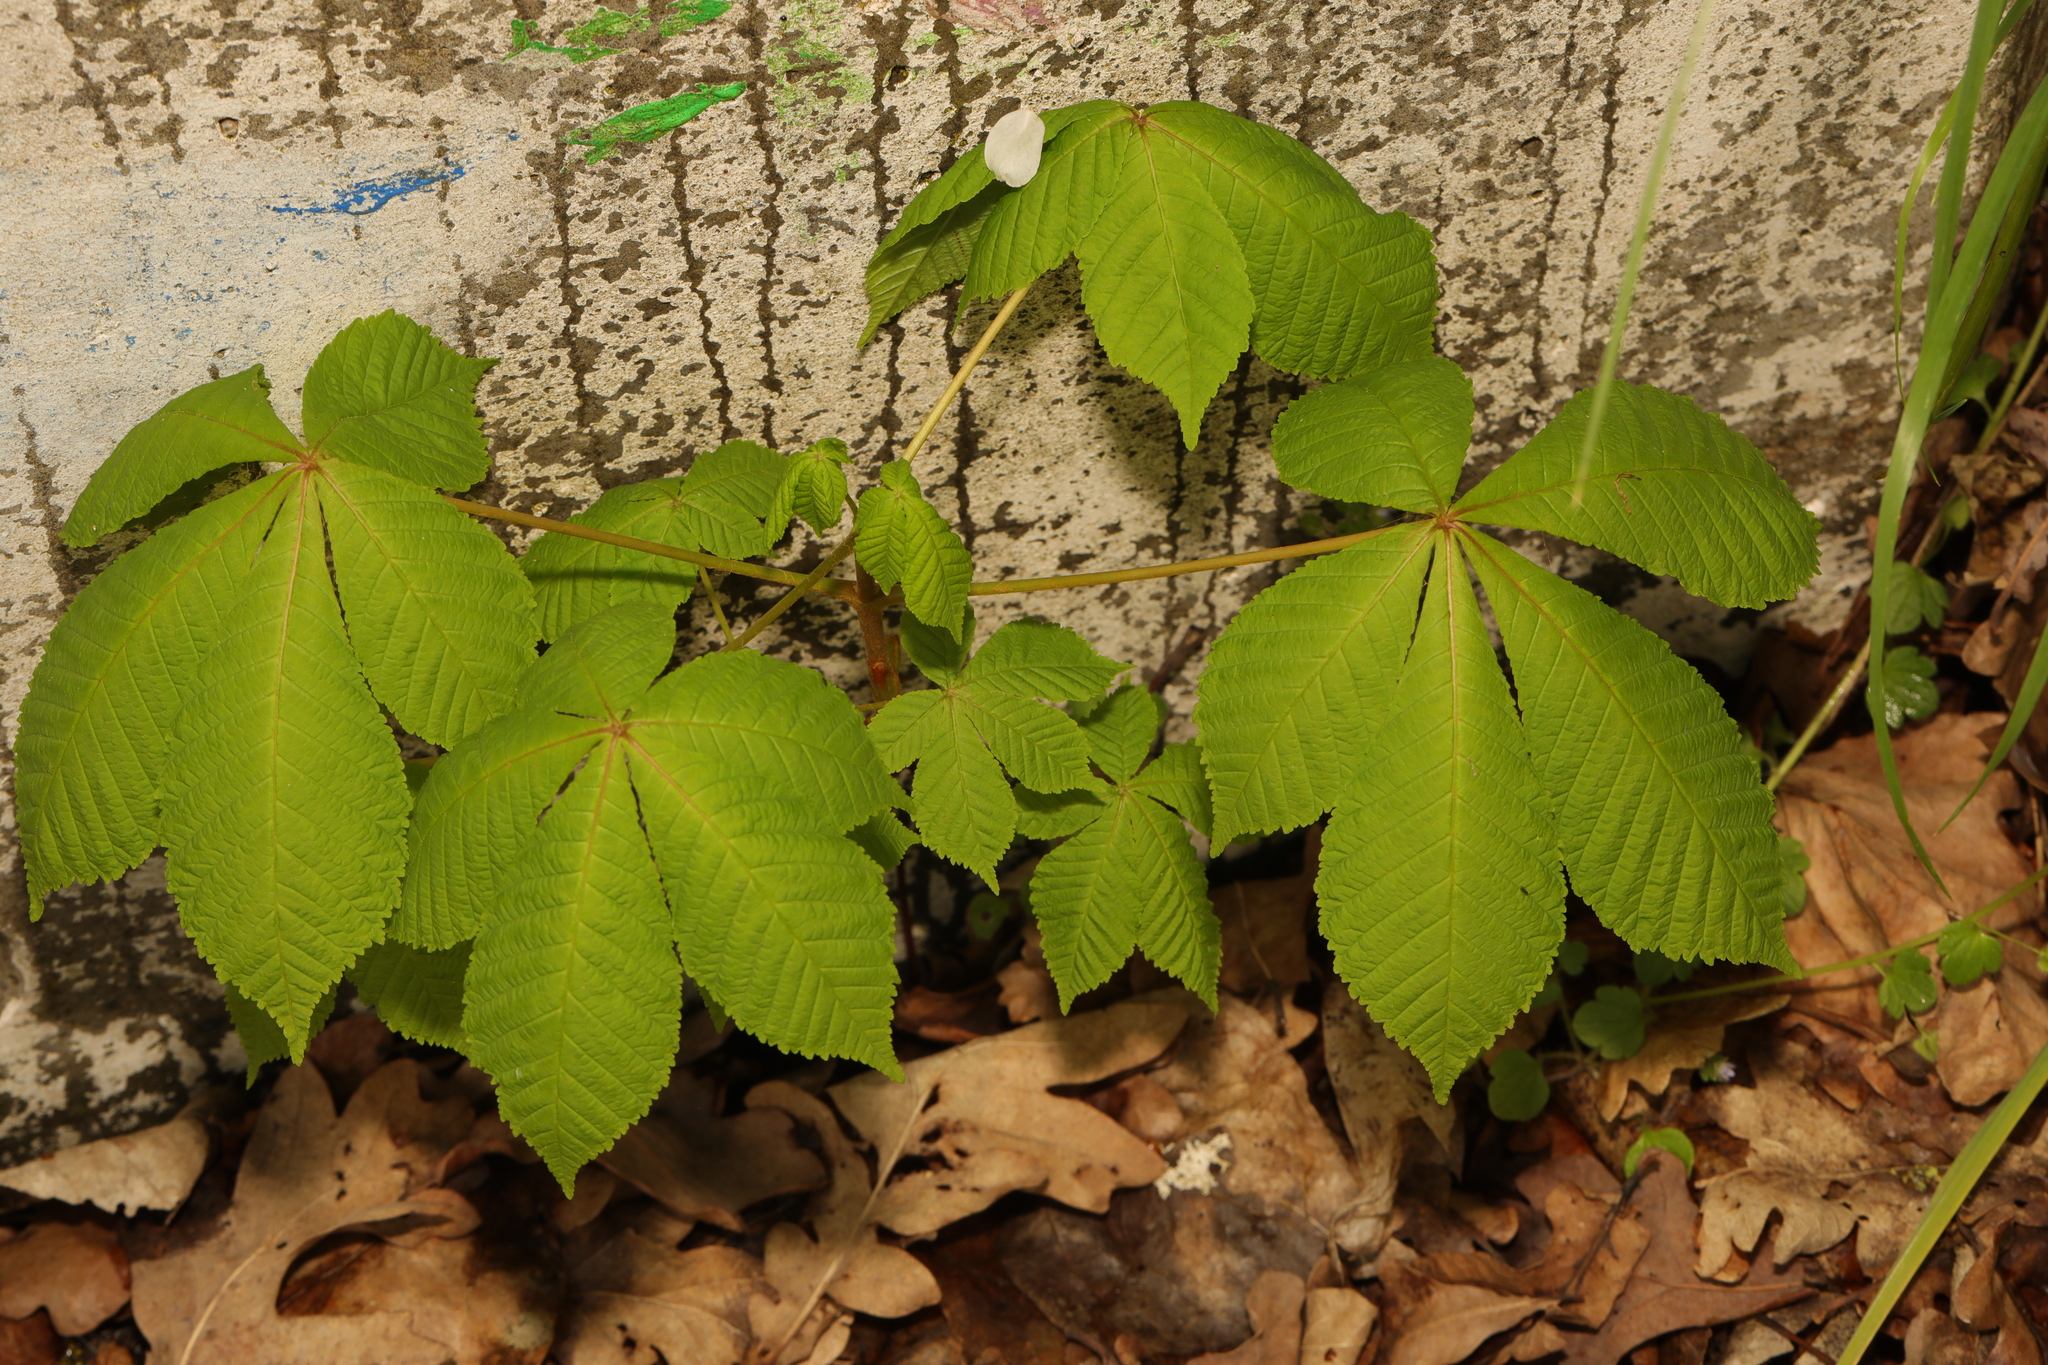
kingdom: Plantae
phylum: Tracheophyta
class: Magnoliopsida
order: Sapindales
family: Sapindaceae
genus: Aesculus
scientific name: Aesculus hippocastanum
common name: Horse-chestnut
